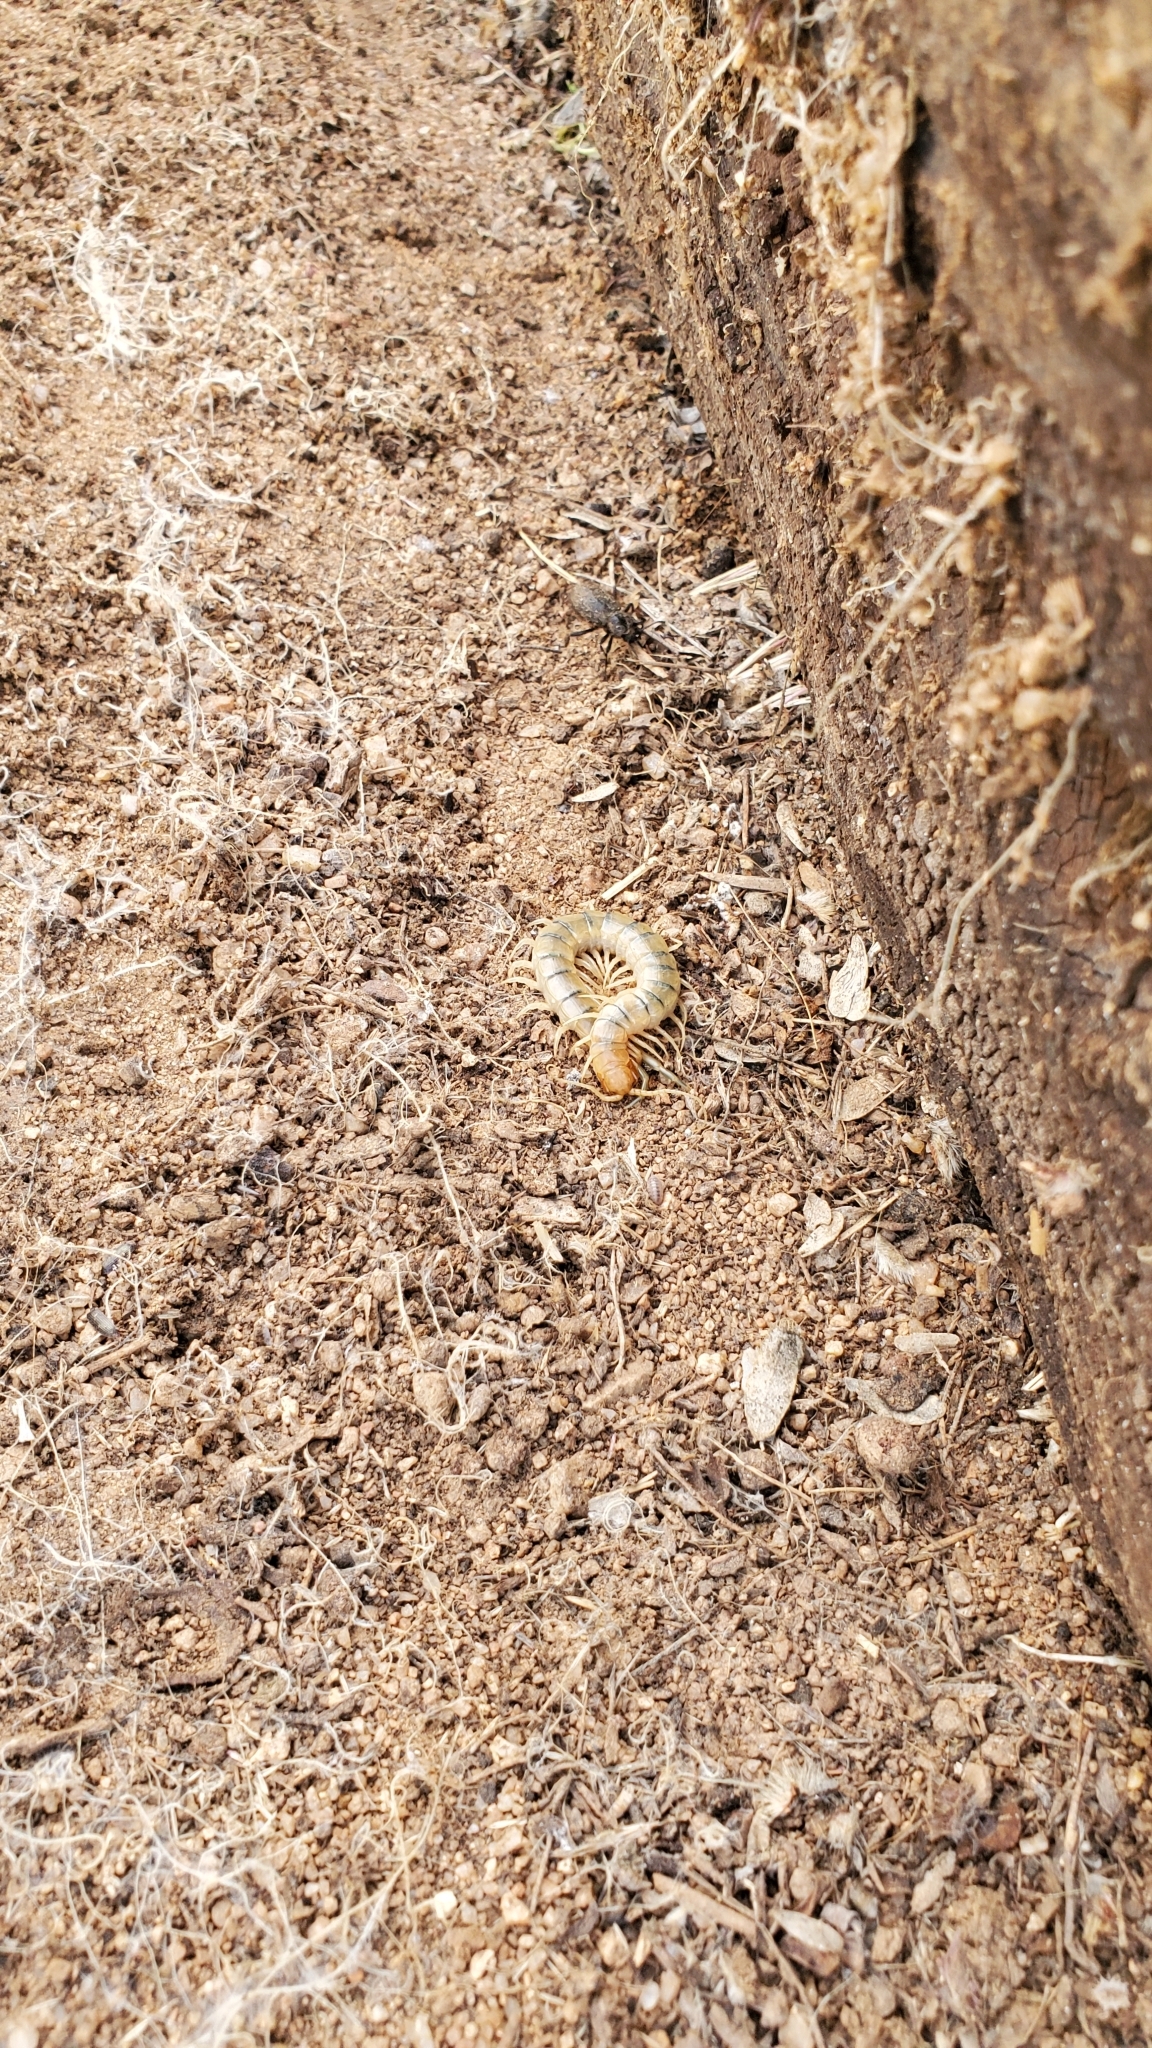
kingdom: Animalia
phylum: Arthropoda
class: Chilopoda
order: Scolopendromorpha
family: Scolopendridae
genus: Scolopendra
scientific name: Scolopendra polymorpha
